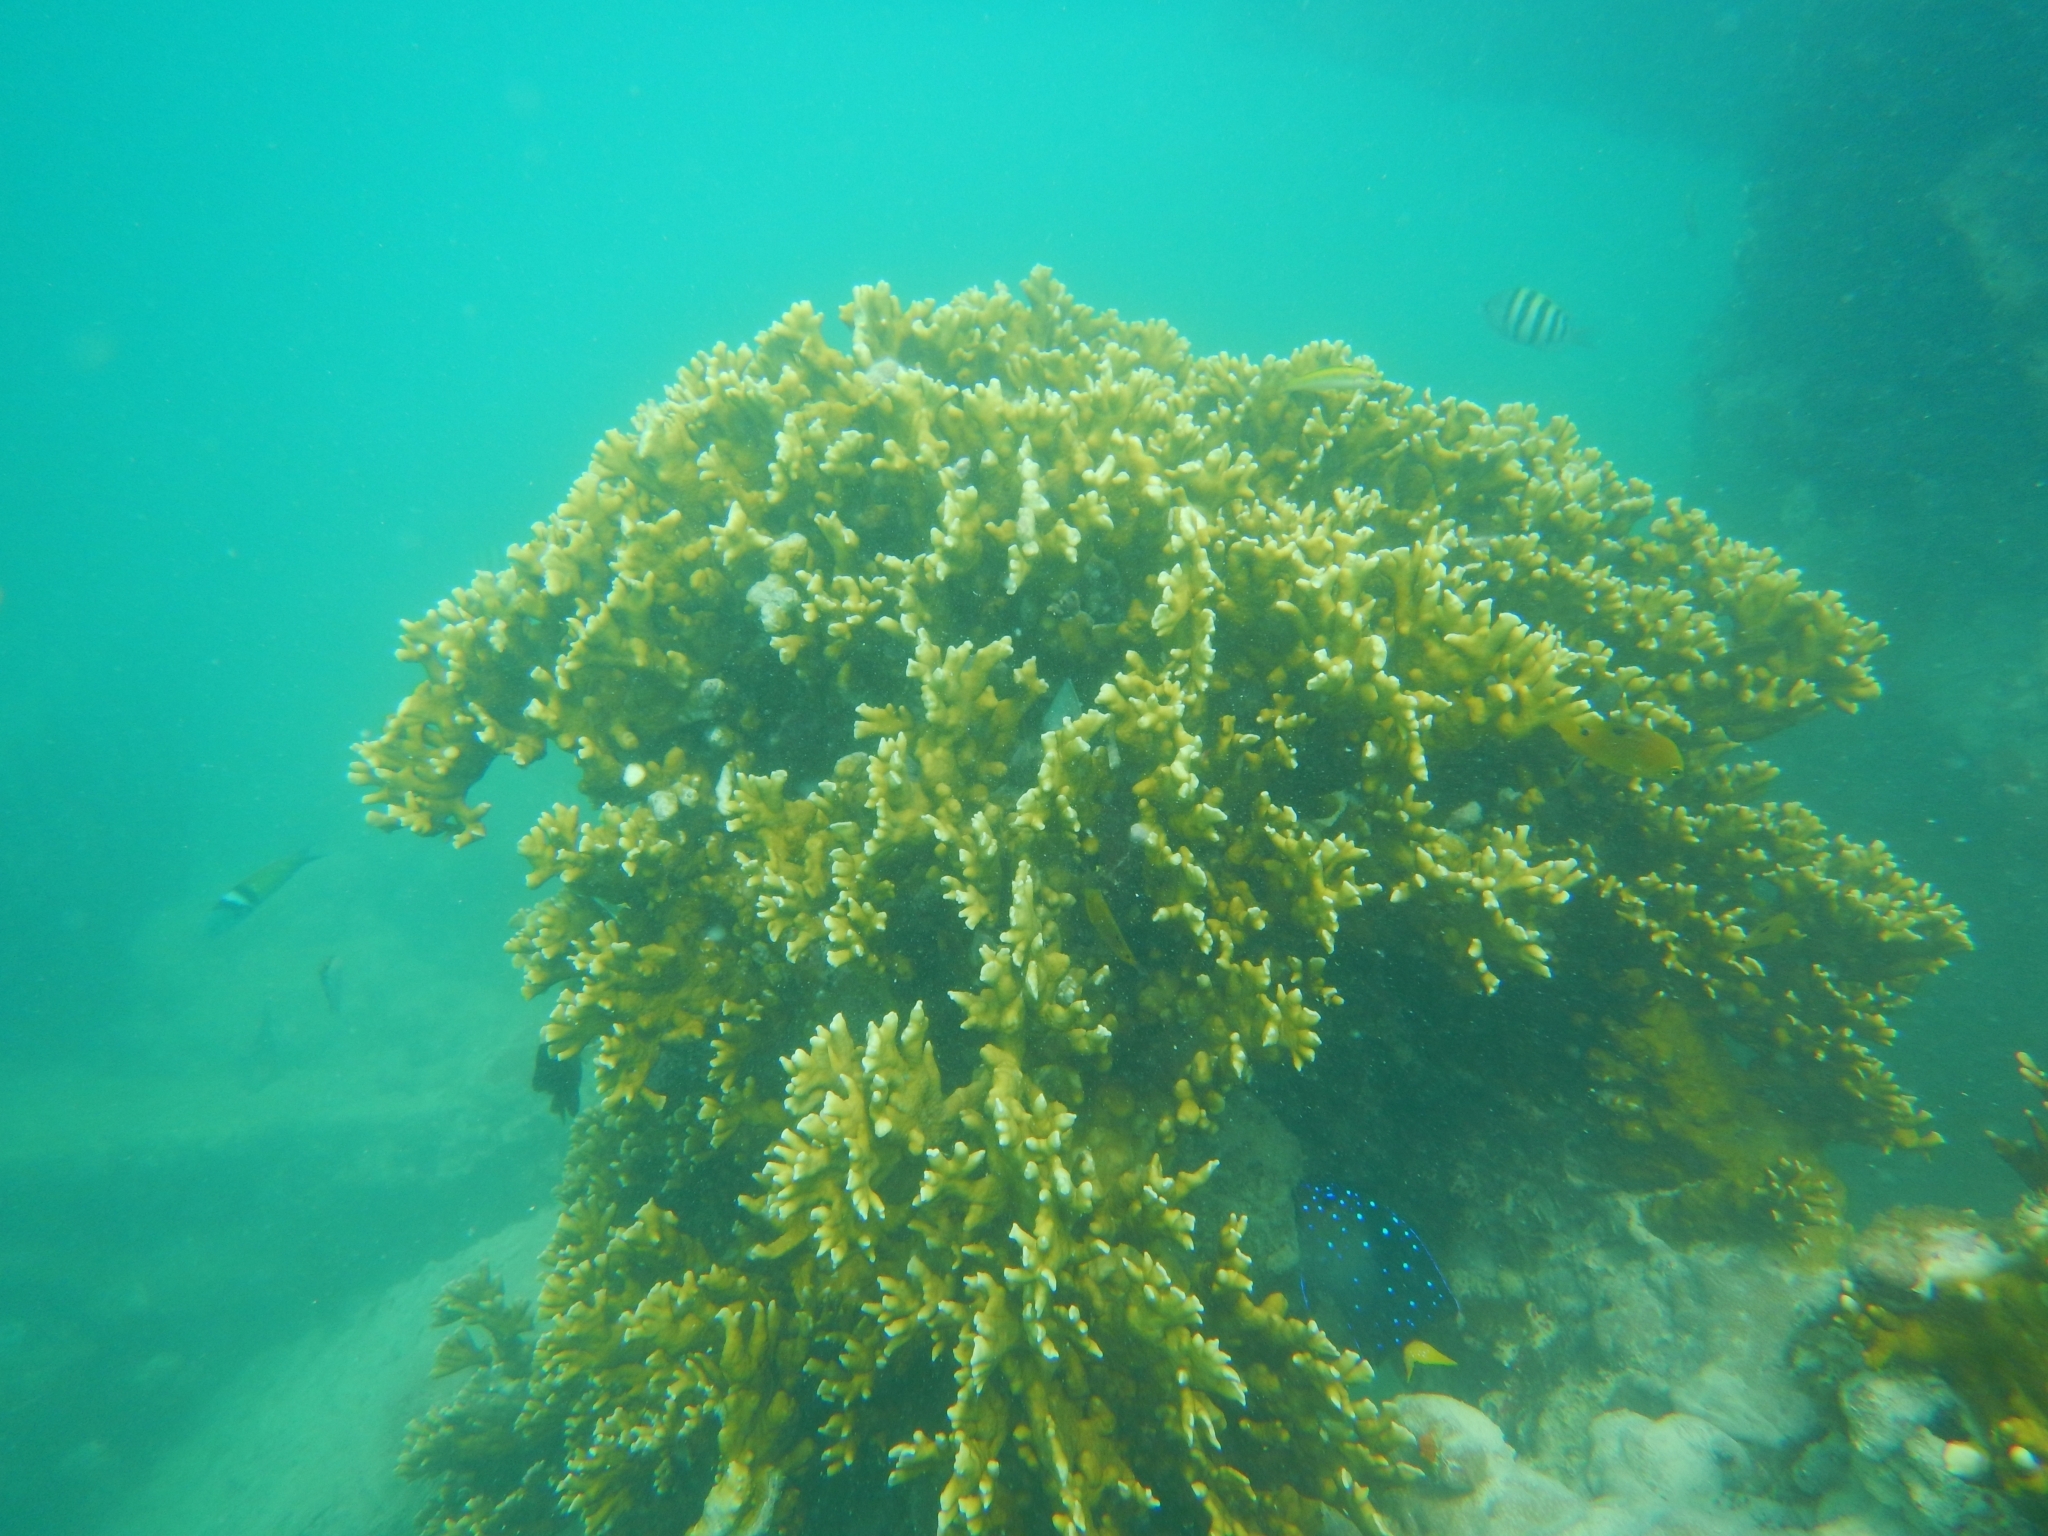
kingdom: Animalia
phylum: Cnidaria
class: Hydrozoa
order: Anthoathecata
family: Milleporidae
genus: Millepora
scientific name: Millepora alcicornis
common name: Branching fire coral
